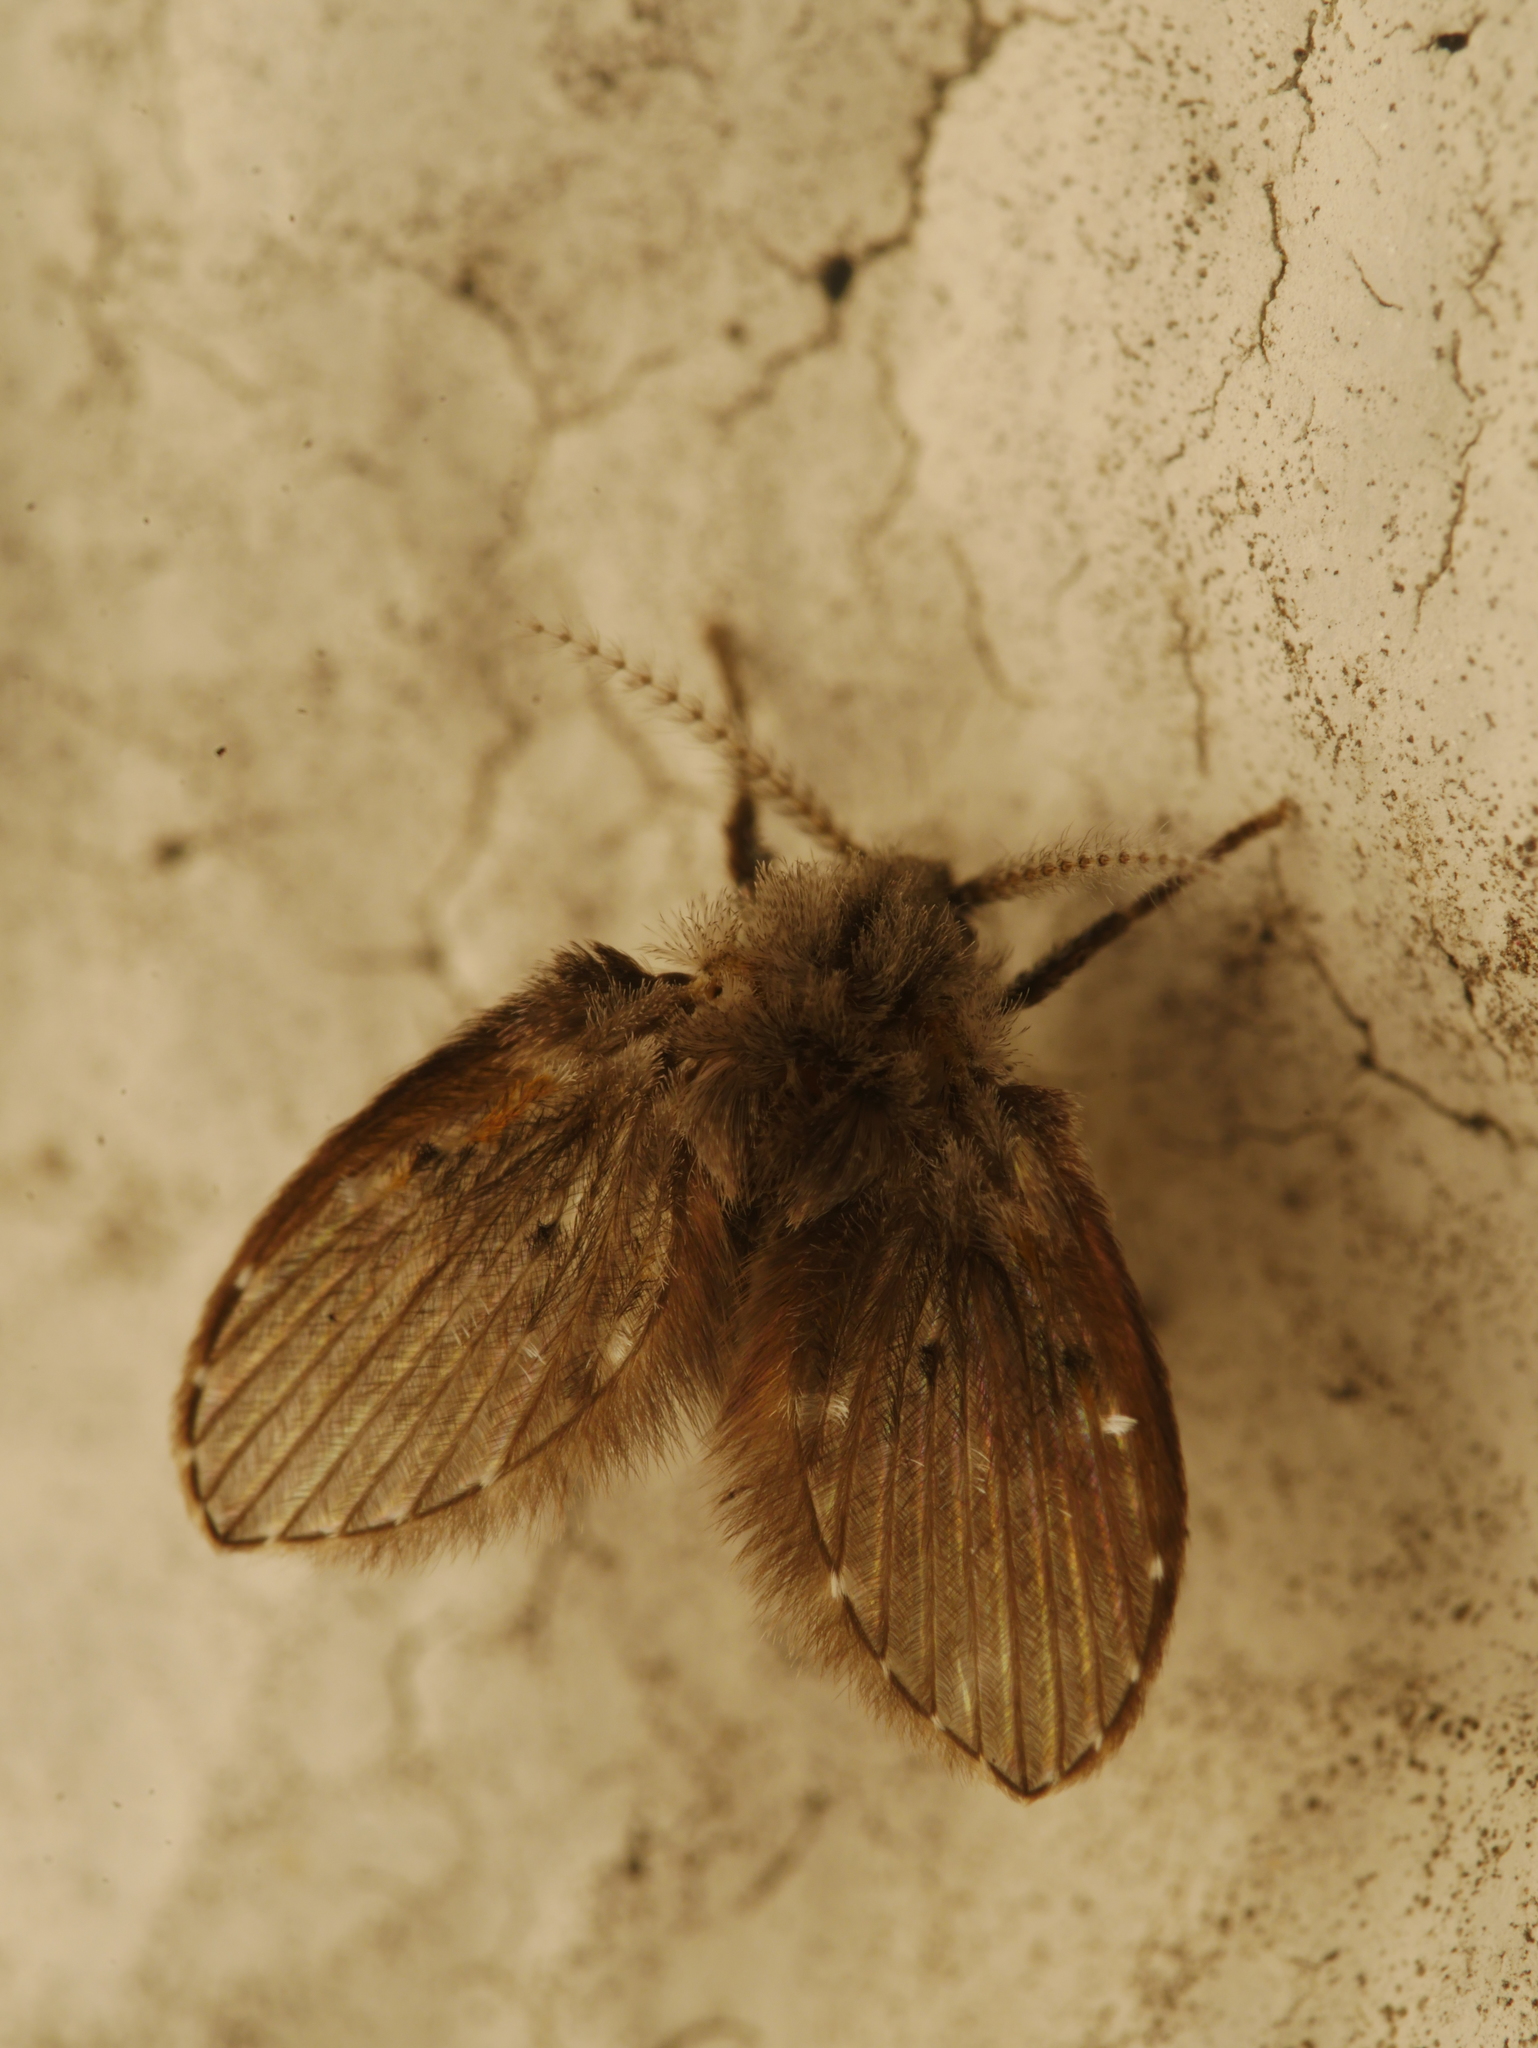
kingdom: Animalia
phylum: Arthropoda
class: Insecta
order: Diptera
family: Psychodidae
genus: Clogmia
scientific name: Clogmia albipunctatus
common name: White-spotted moth fly
